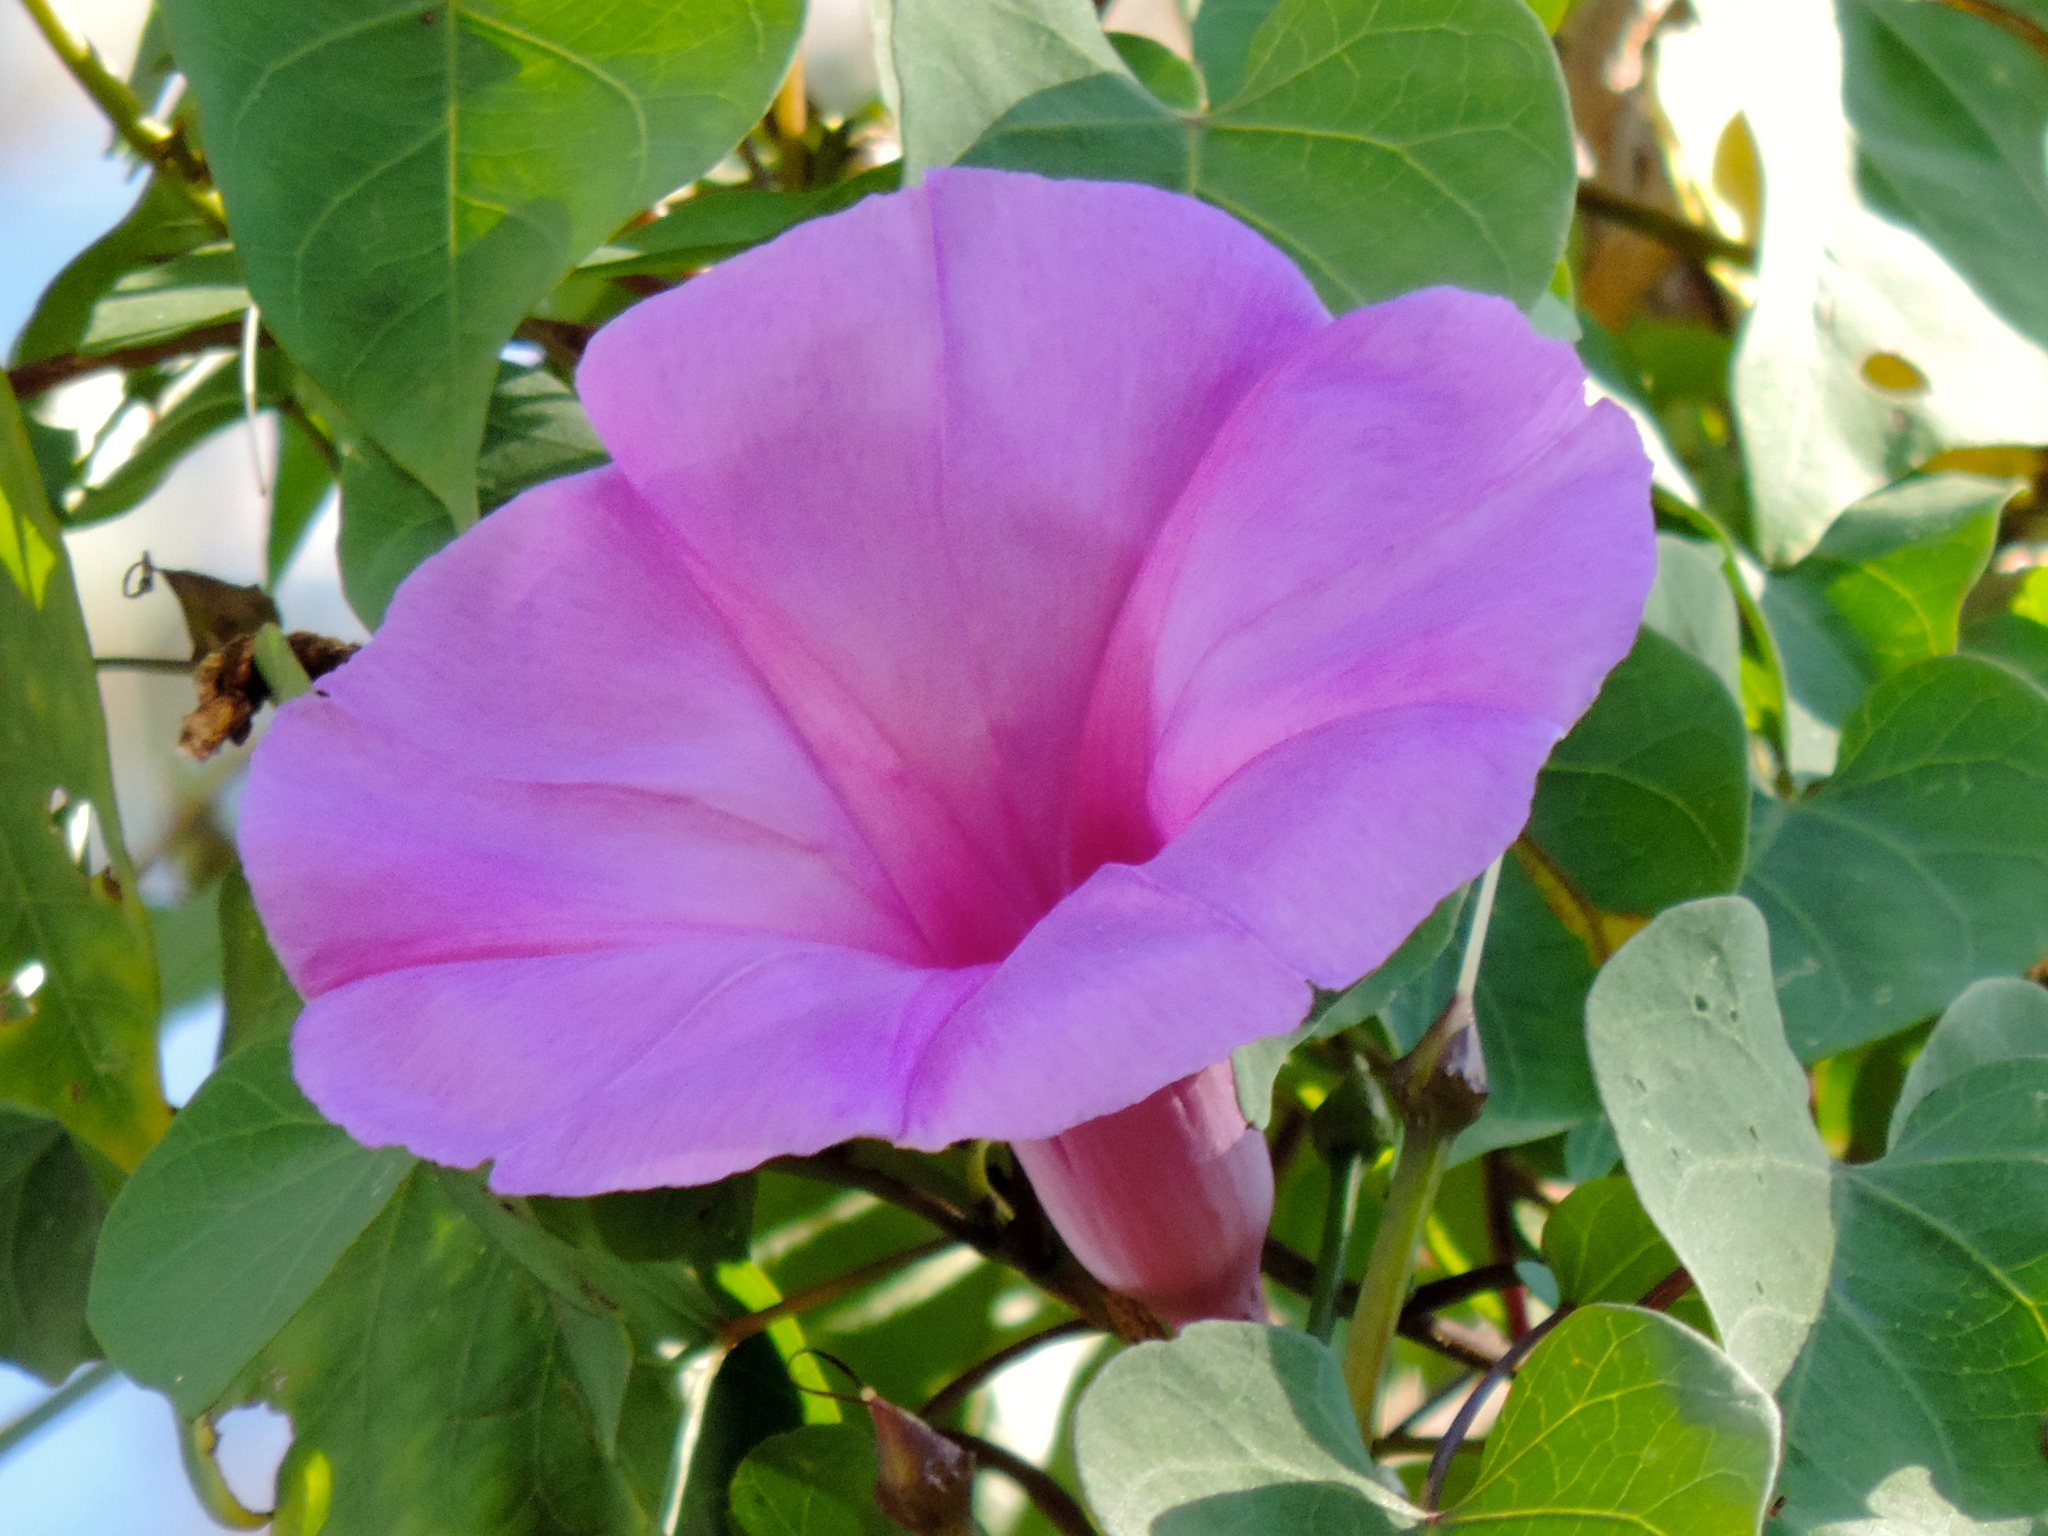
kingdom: Plantae
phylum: Tracheophyta
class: Magnoliopsida
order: Solanales
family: Convolvulaceae
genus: Ipomoea
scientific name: Ipomoea pedicellaris
